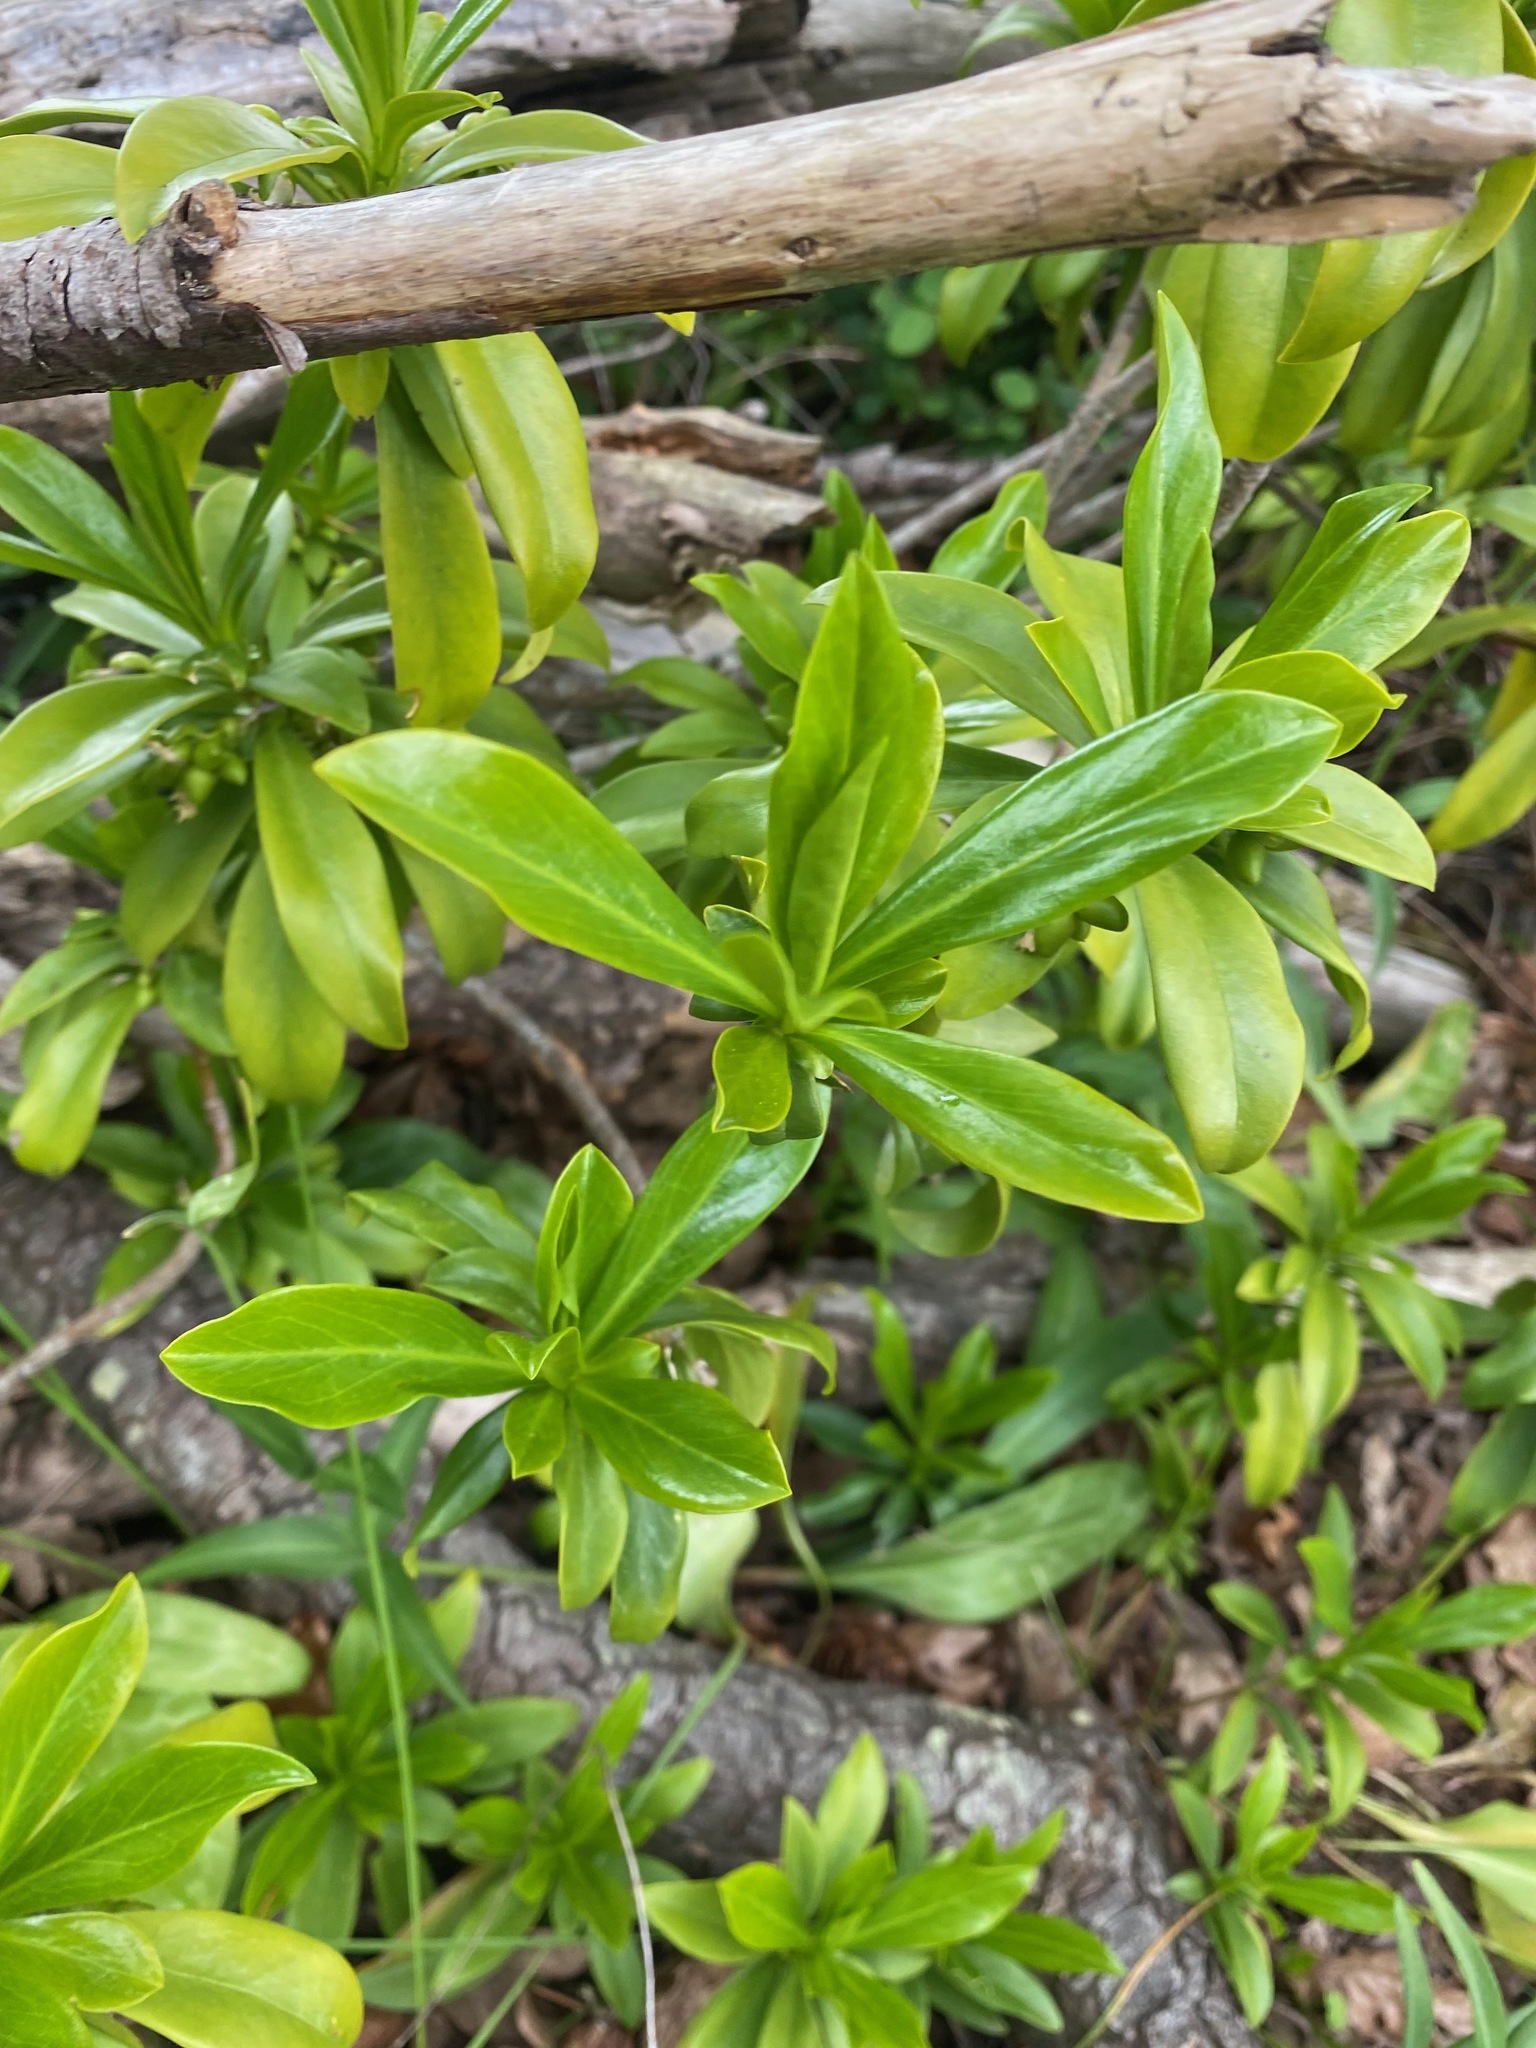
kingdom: Plantae
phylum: Tracheophyta
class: Magnoliopsida
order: Malvales
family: Thymelaeaceae
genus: Daphne
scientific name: Daphne laureola
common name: Spurge-laurel
